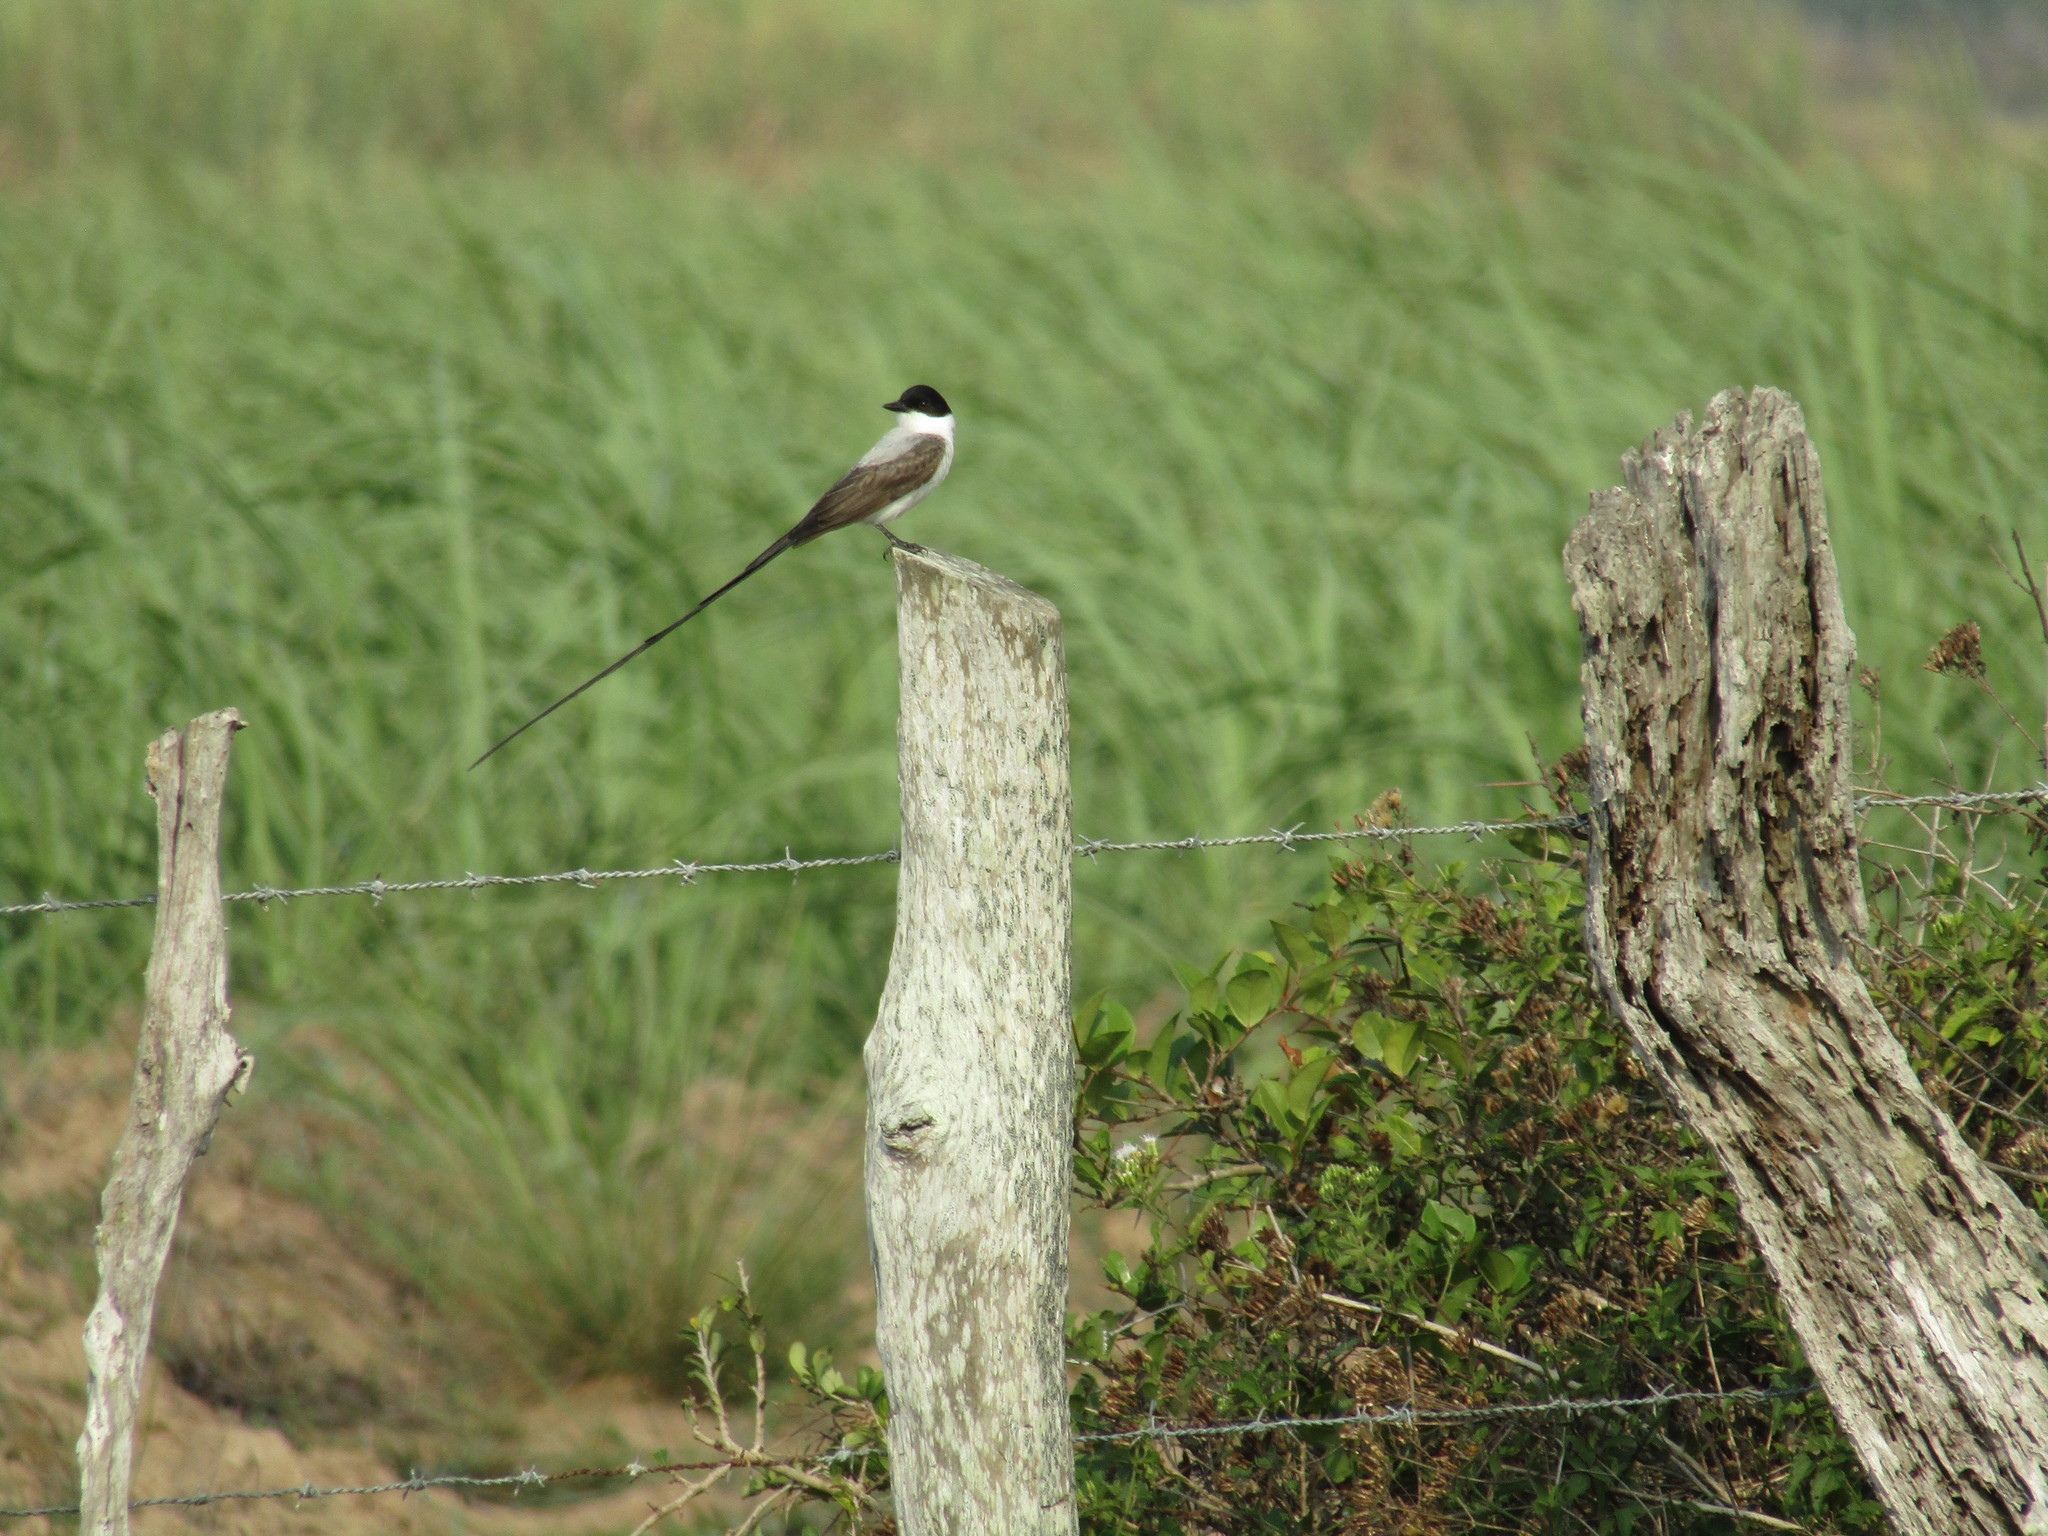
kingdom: Animalia
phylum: Chordata
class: Aves
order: Passeriformes
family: Tyrannidae
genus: Tyrannus
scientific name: Tyrannus savana
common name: Fork-tailed flycatcher
